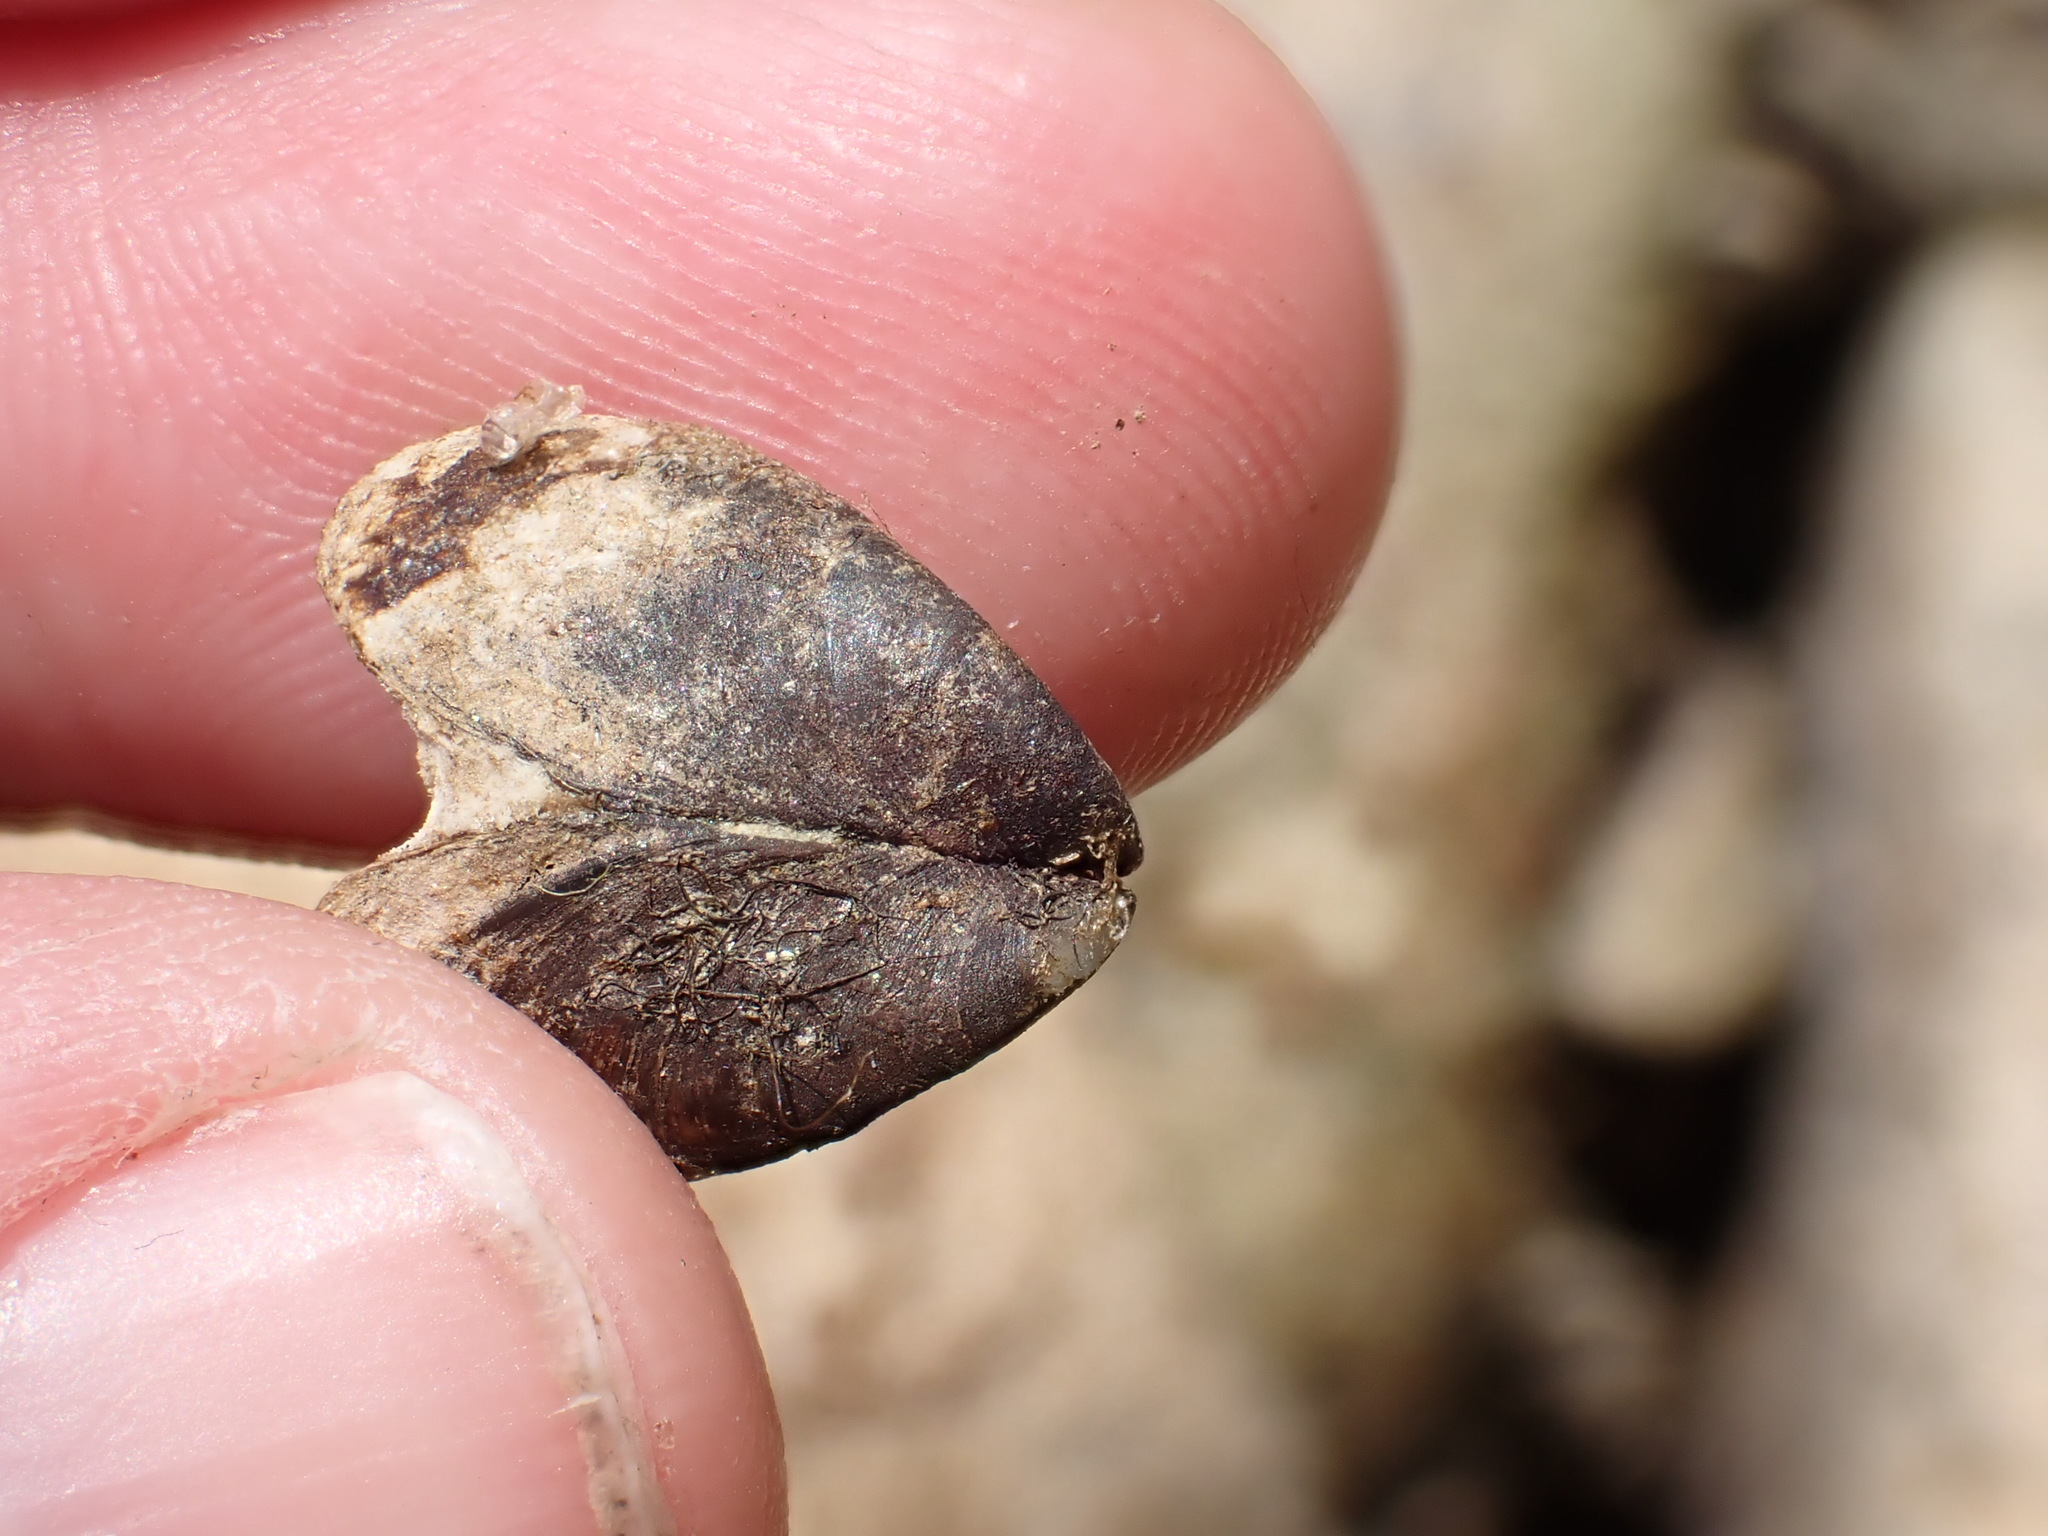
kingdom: Animalia
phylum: Mollusca
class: Bivalvia
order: Myida
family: Dreissenidae
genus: Dreissena
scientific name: Dreissena polymorpha
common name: Zebra mussel
